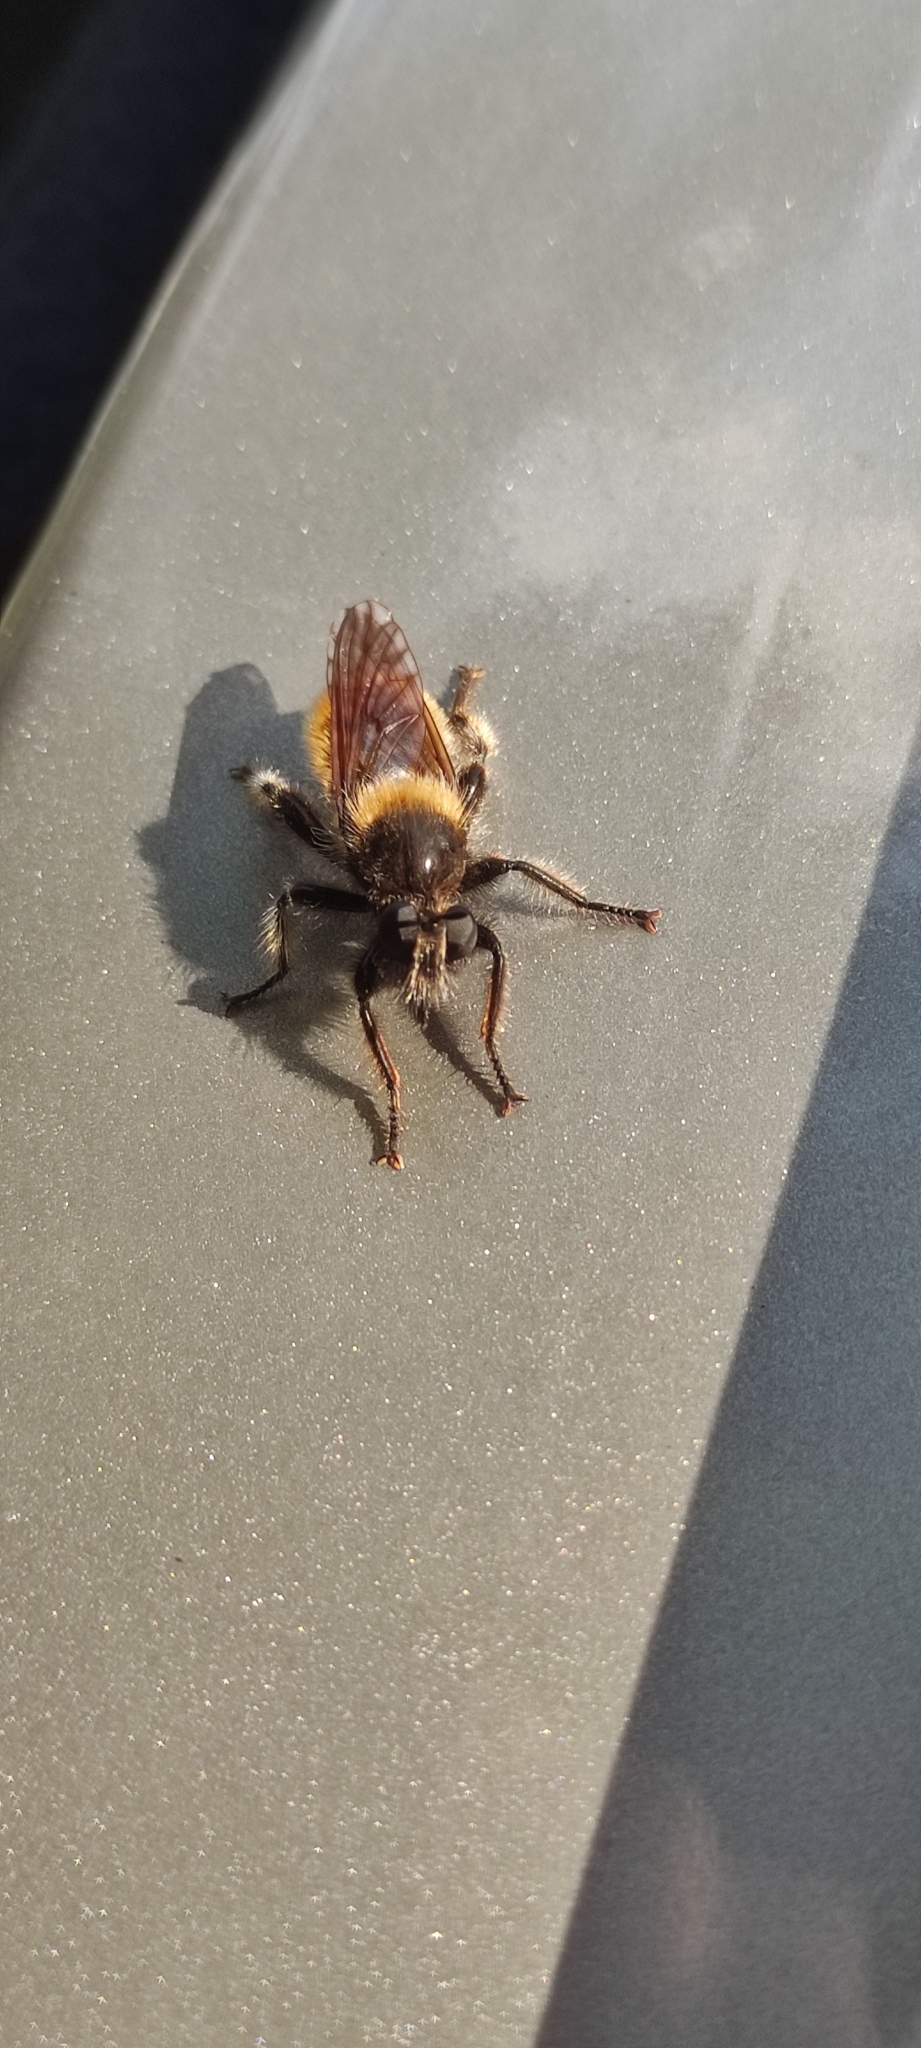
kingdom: Animalia
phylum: Arthropoda
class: Insecta
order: Diptera
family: Asilidae
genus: Laphria
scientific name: Laphria flava
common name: Bumblebee robberfly
